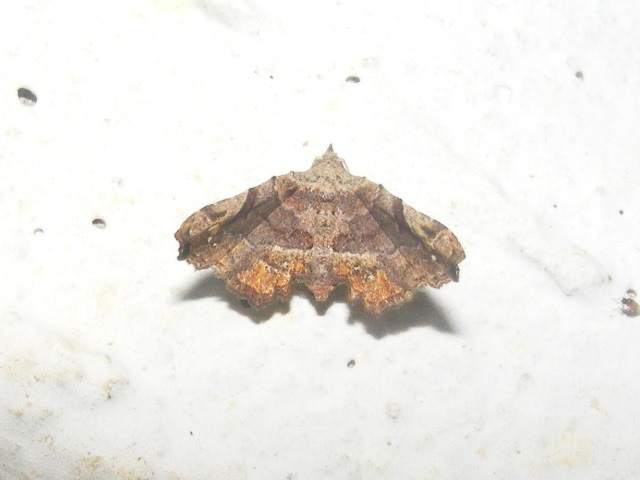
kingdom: Animalia
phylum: Arthropoda
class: Insecta
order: Lepidoptera
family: Erebidae
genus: Hypertrocta
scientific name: Hypertrocta posticalis
